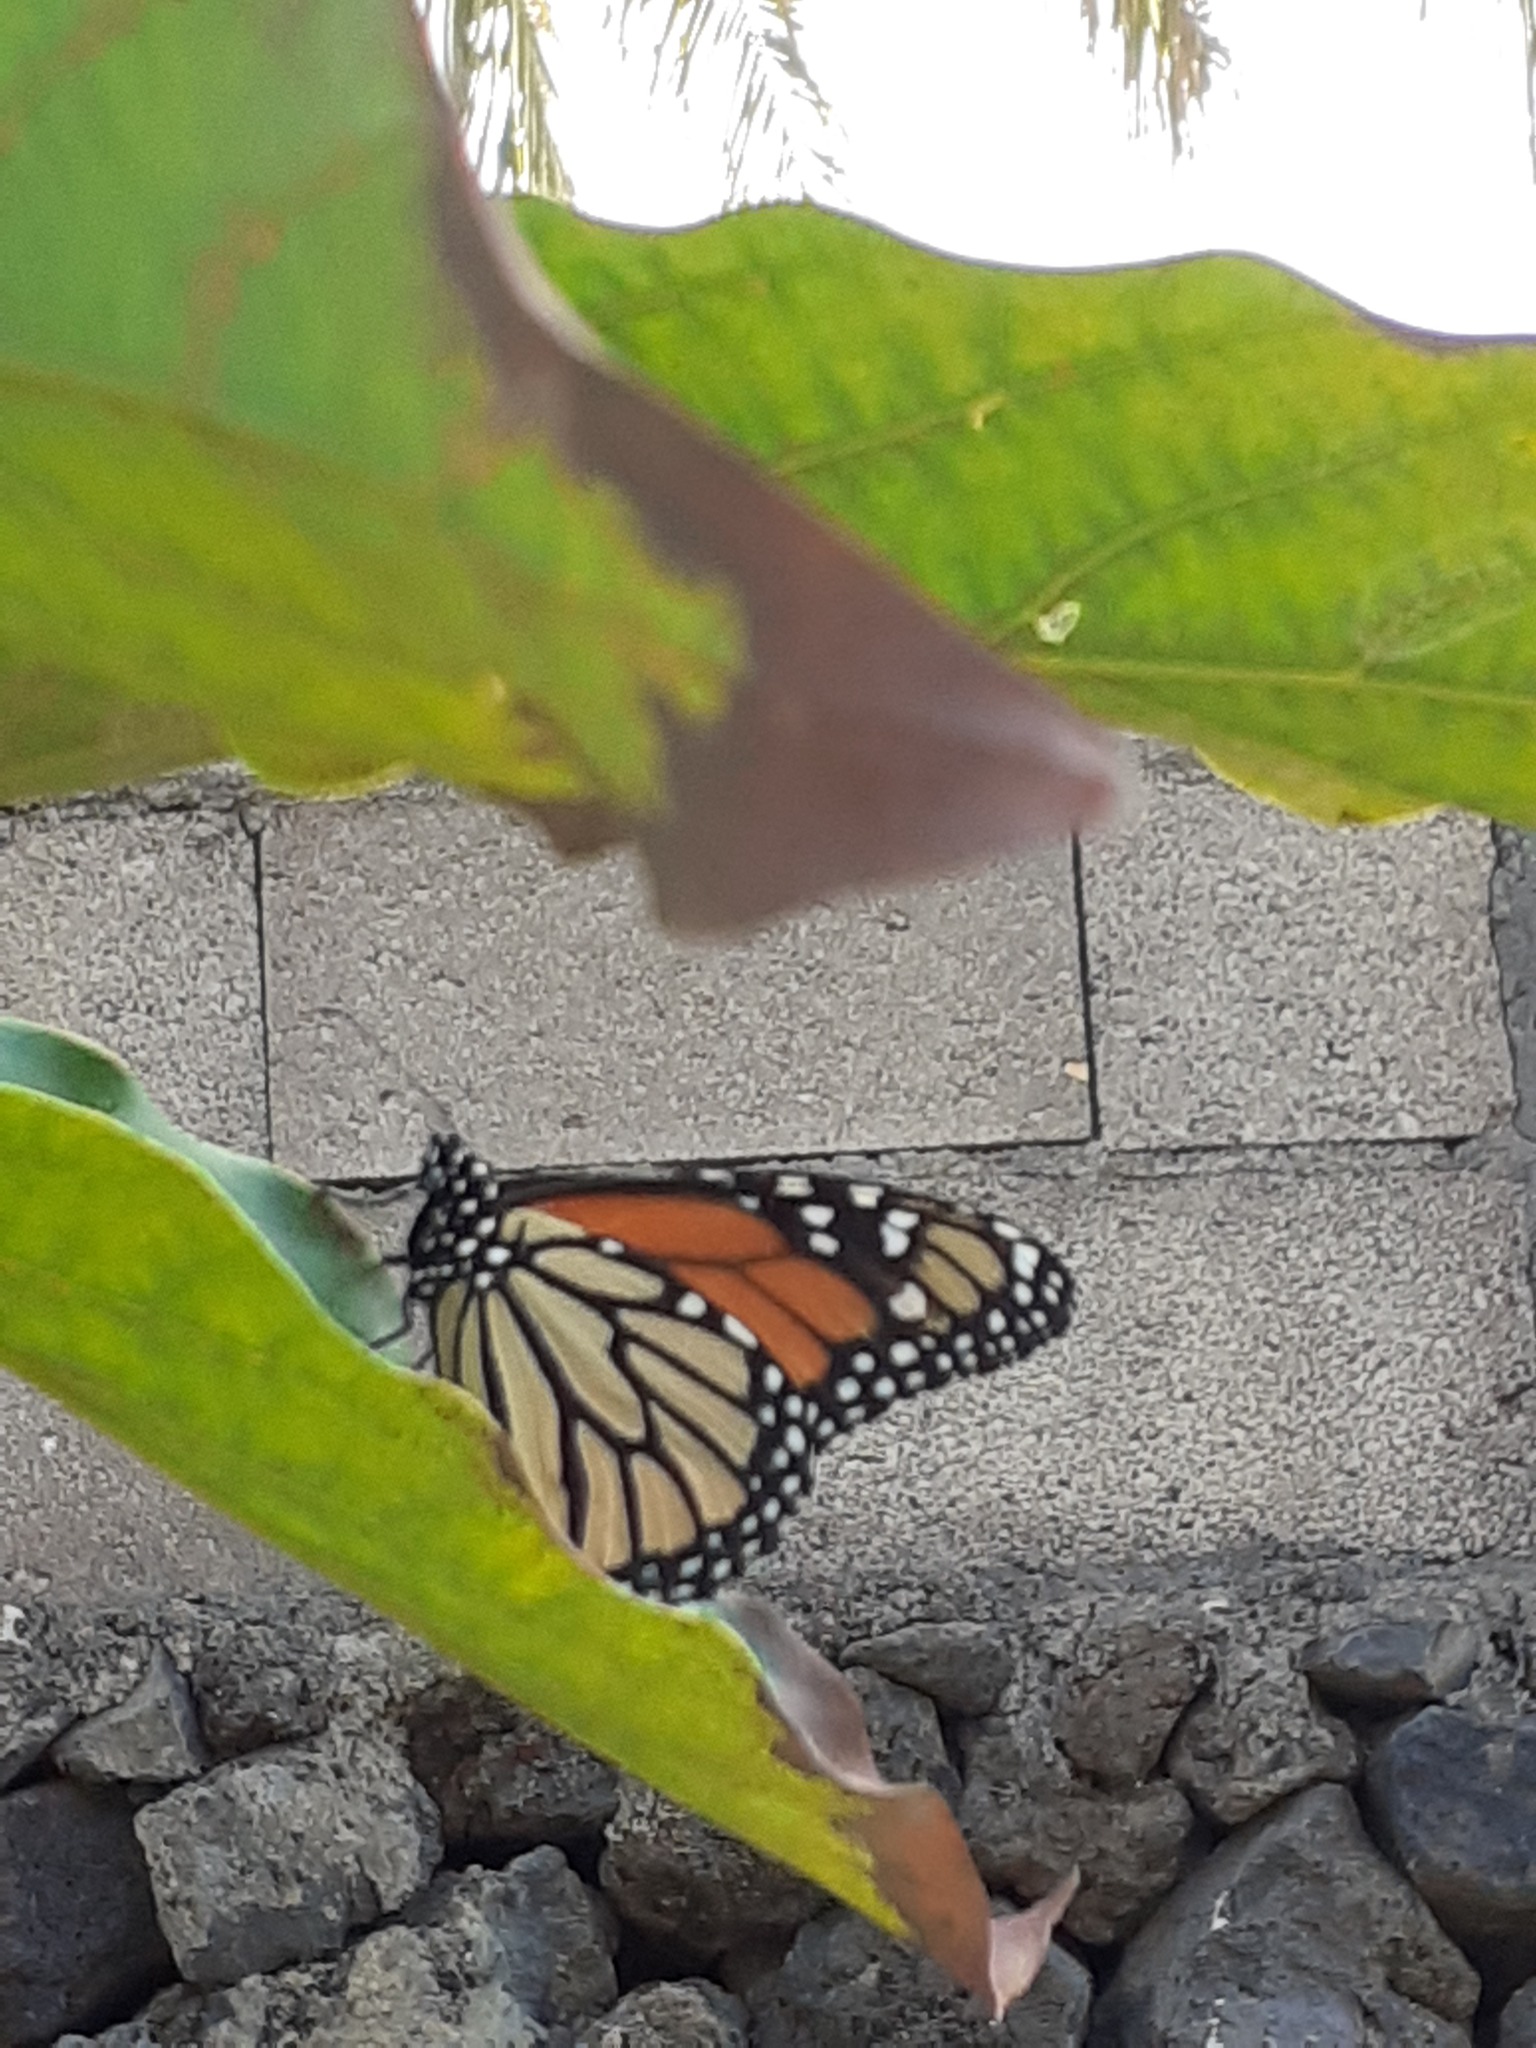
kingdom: Animalia
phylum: Arthropoda
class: Insecta
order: Lepidoptera
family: Nymphalidae
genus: Danaus
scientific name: Danaus plexippus
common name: Monarch
